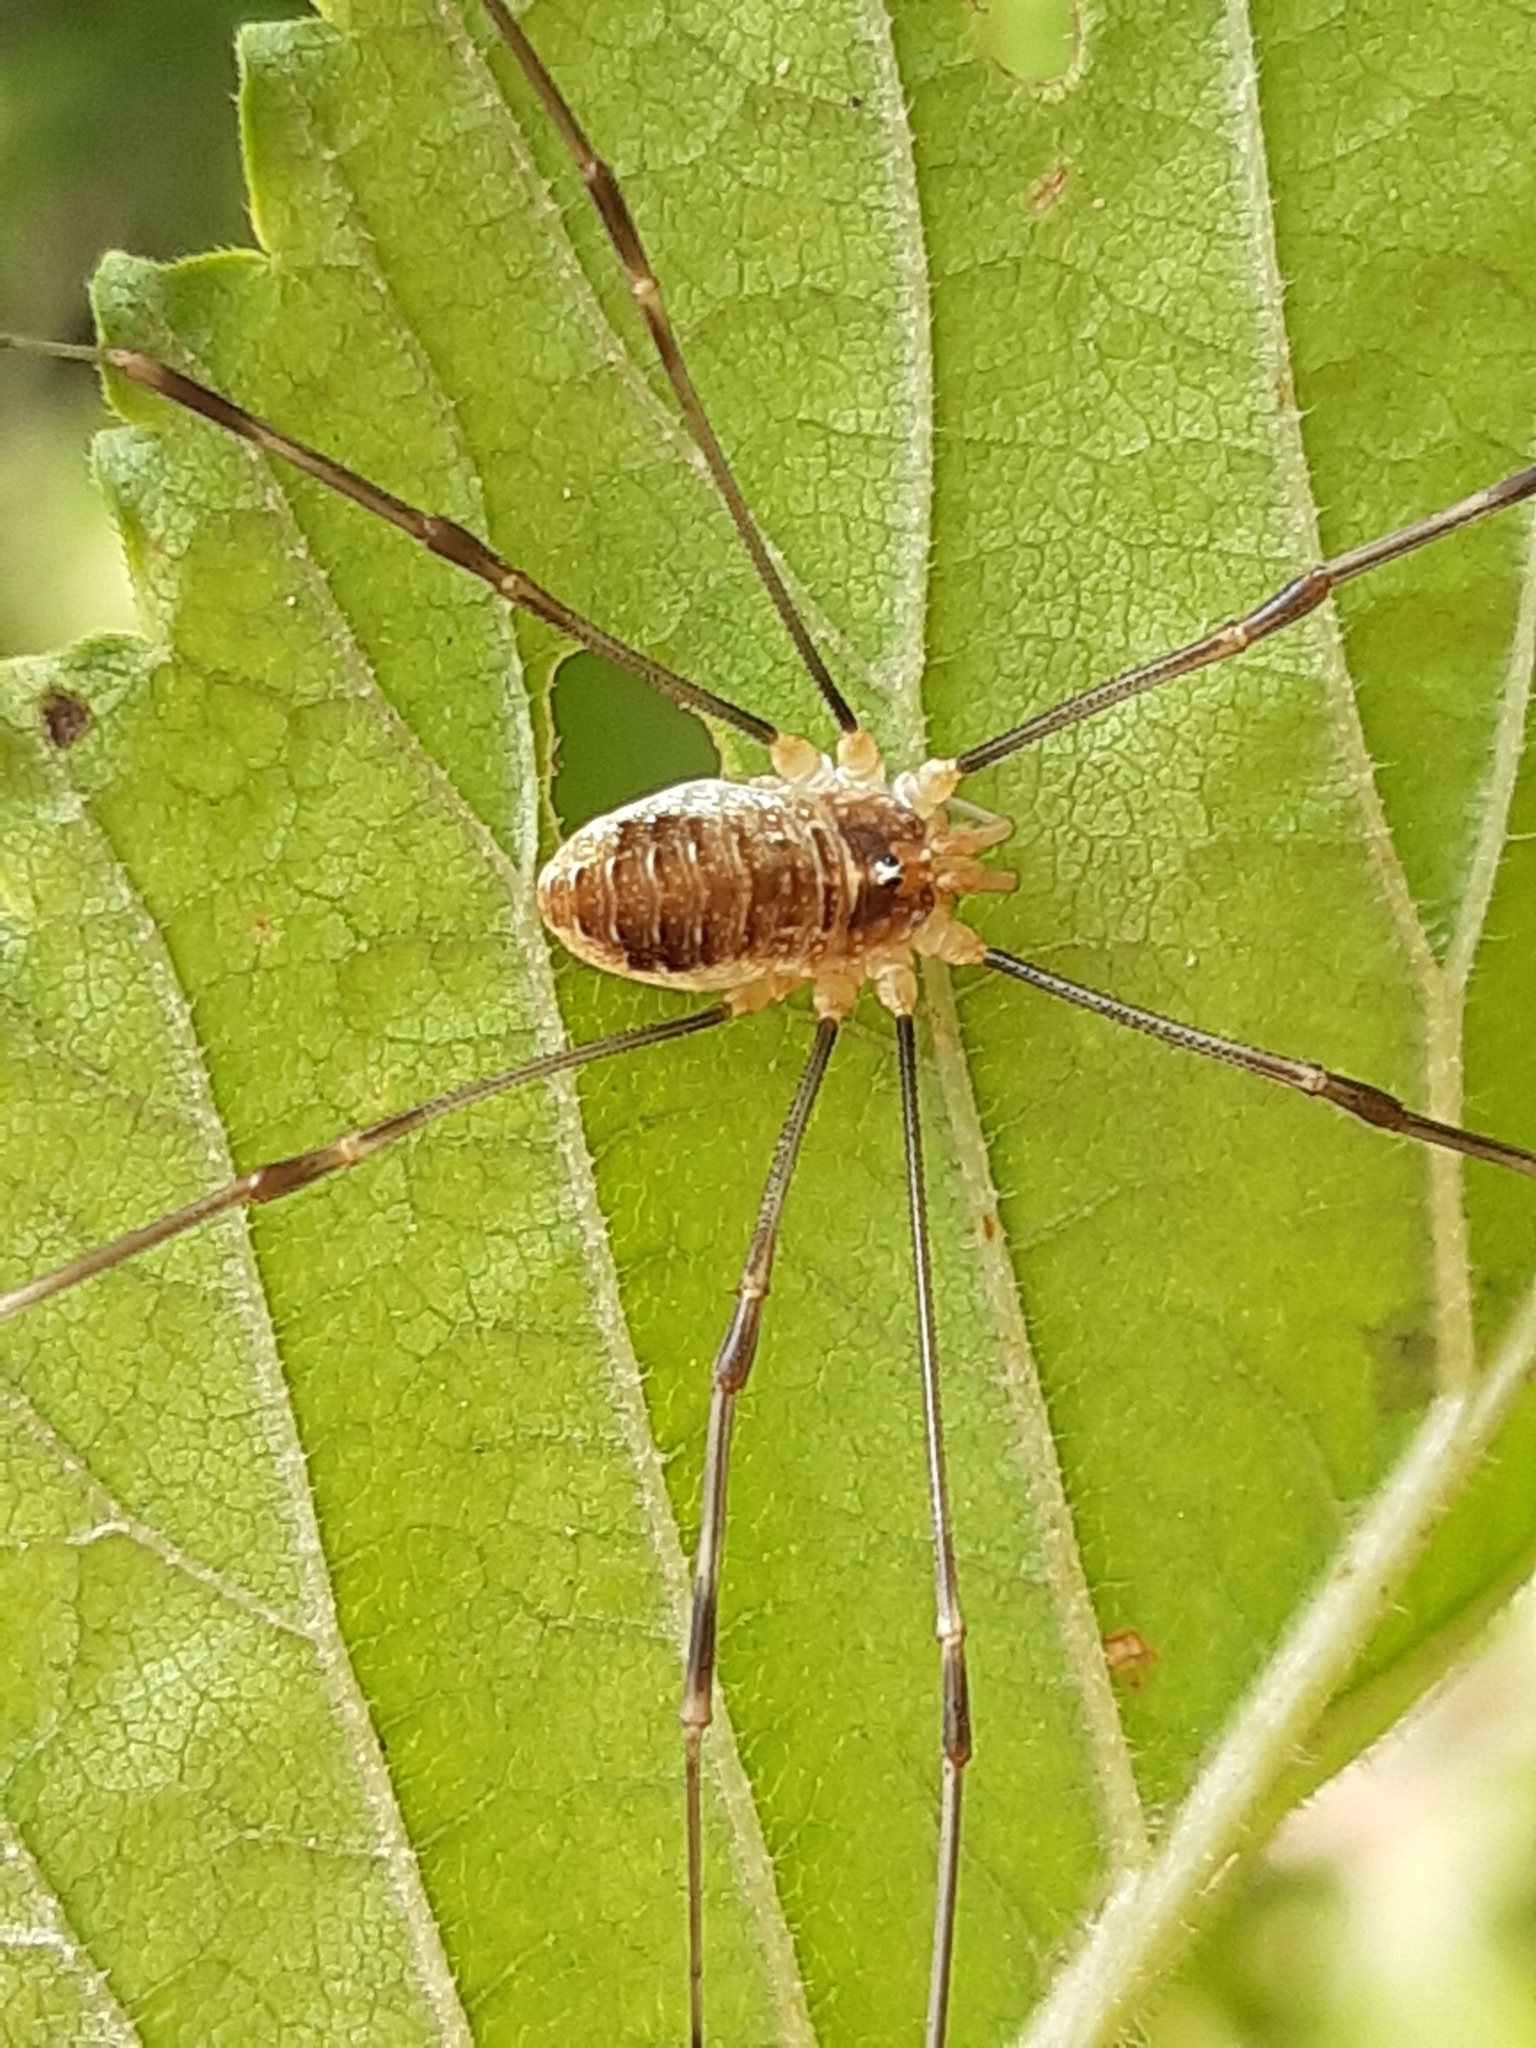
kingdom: Animalia
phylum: Arthropoda
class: Arachnida
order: Opiliones
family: Phalangiidae
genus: Opilio
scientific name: Opilio canestrinii
